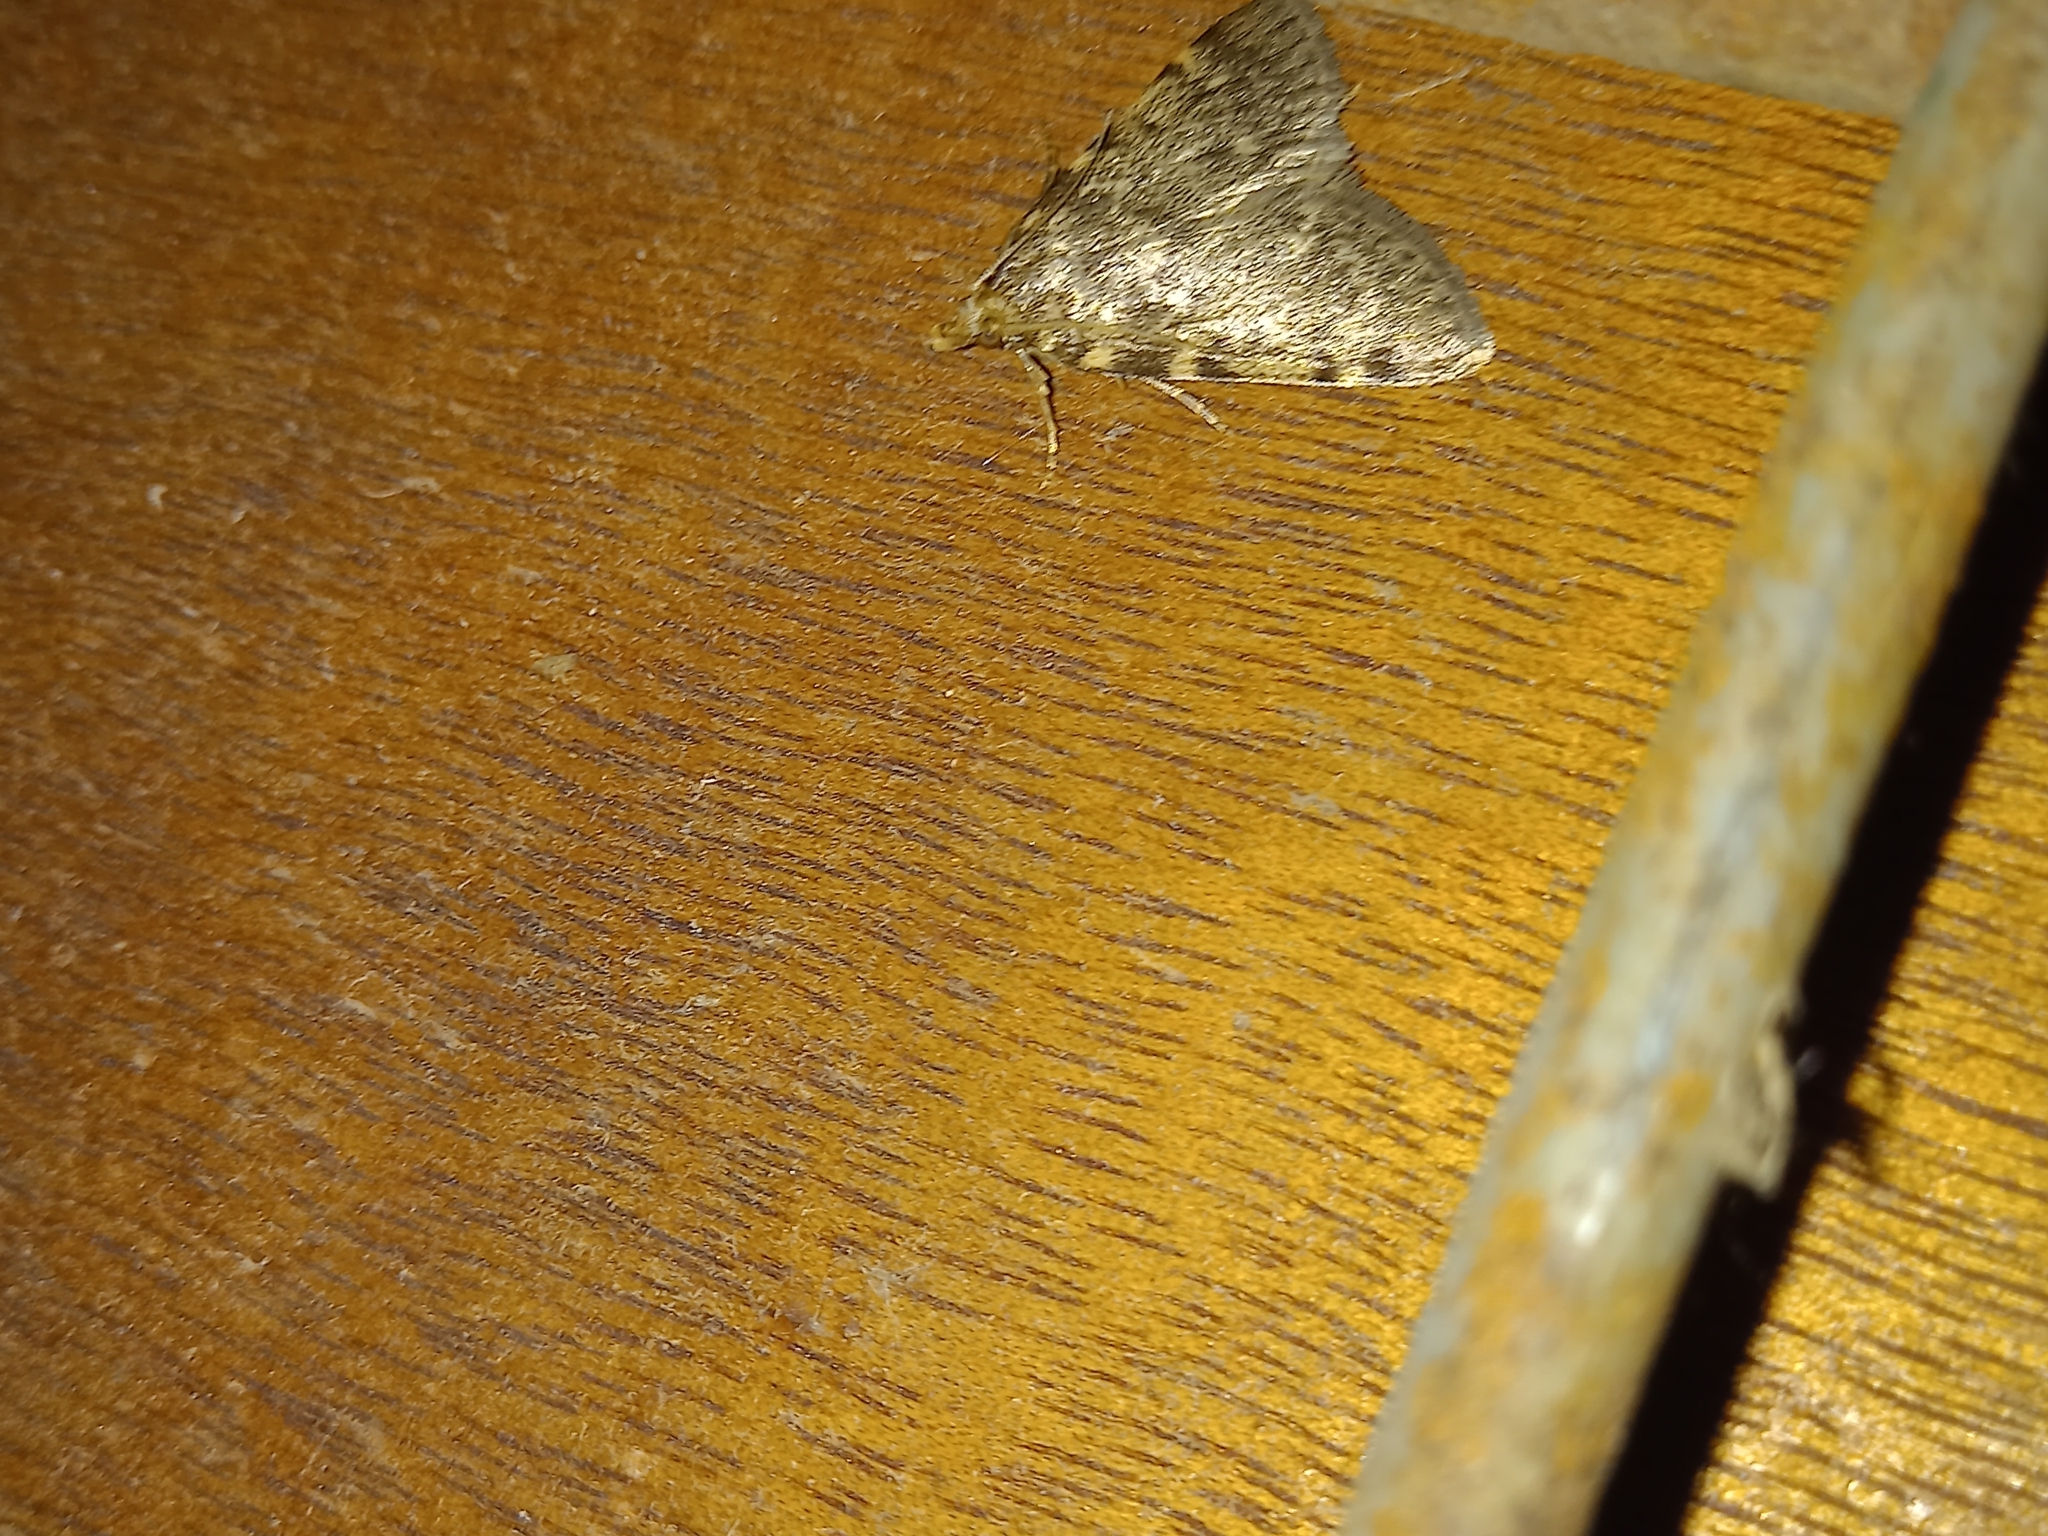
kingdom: Animalia
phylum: Arthropoda
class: Insecta
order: Lepidoptera
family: Pyralidae
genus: Aglossa
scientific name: Aglossa pinguinalis
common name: Large tabby
